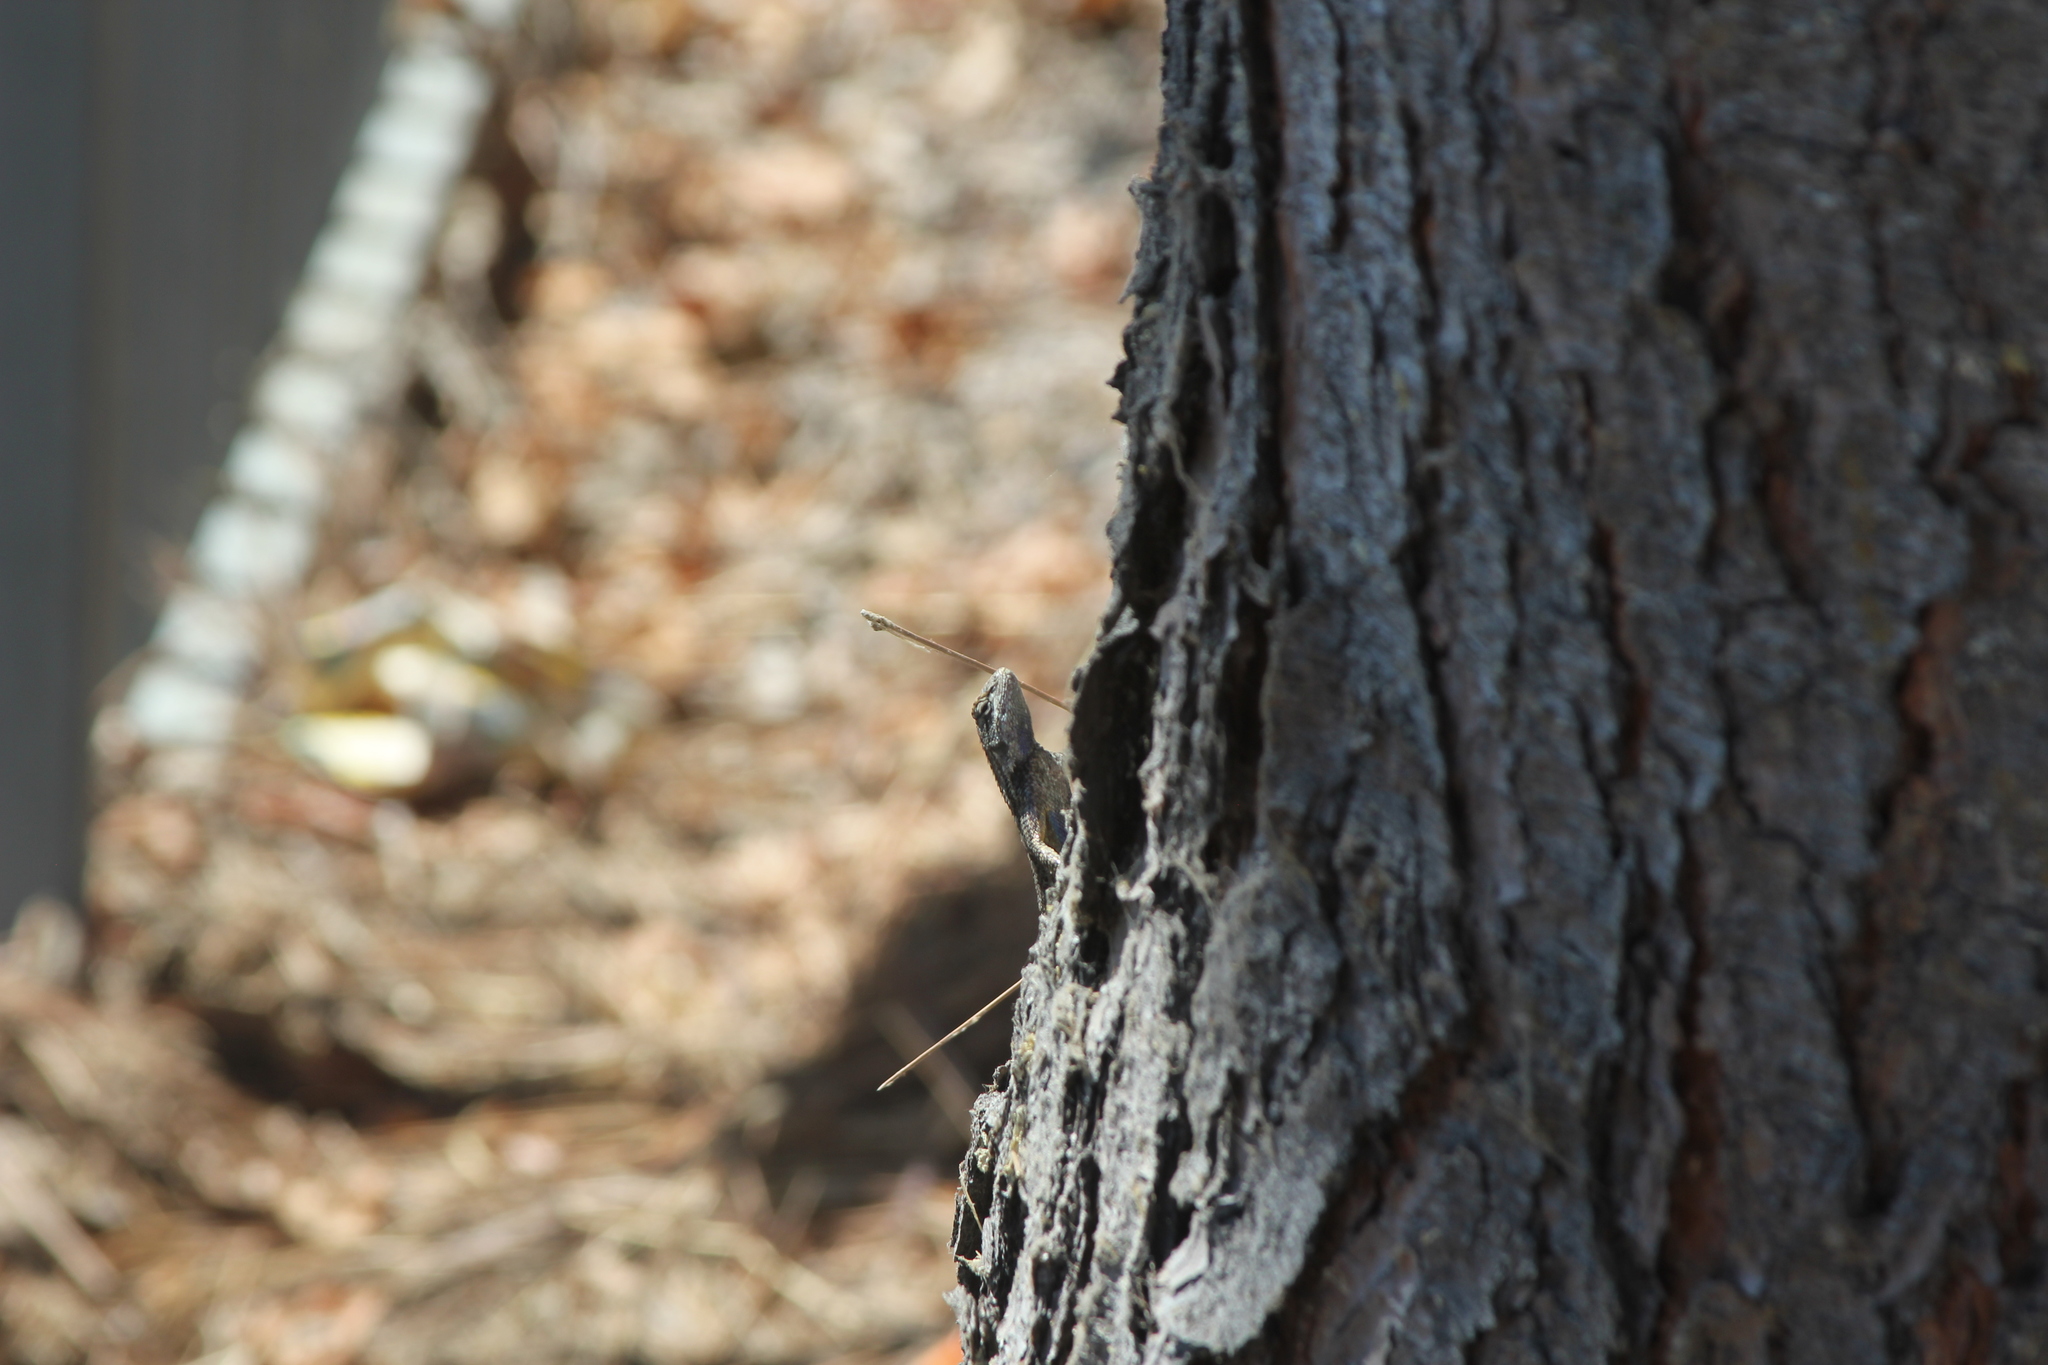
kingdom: Animalia
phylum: Chordata
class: Squamata
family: Phrynosomatidae
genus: Sceloporus
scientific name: Sceloporus occidentalis
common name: Western fence lizard
